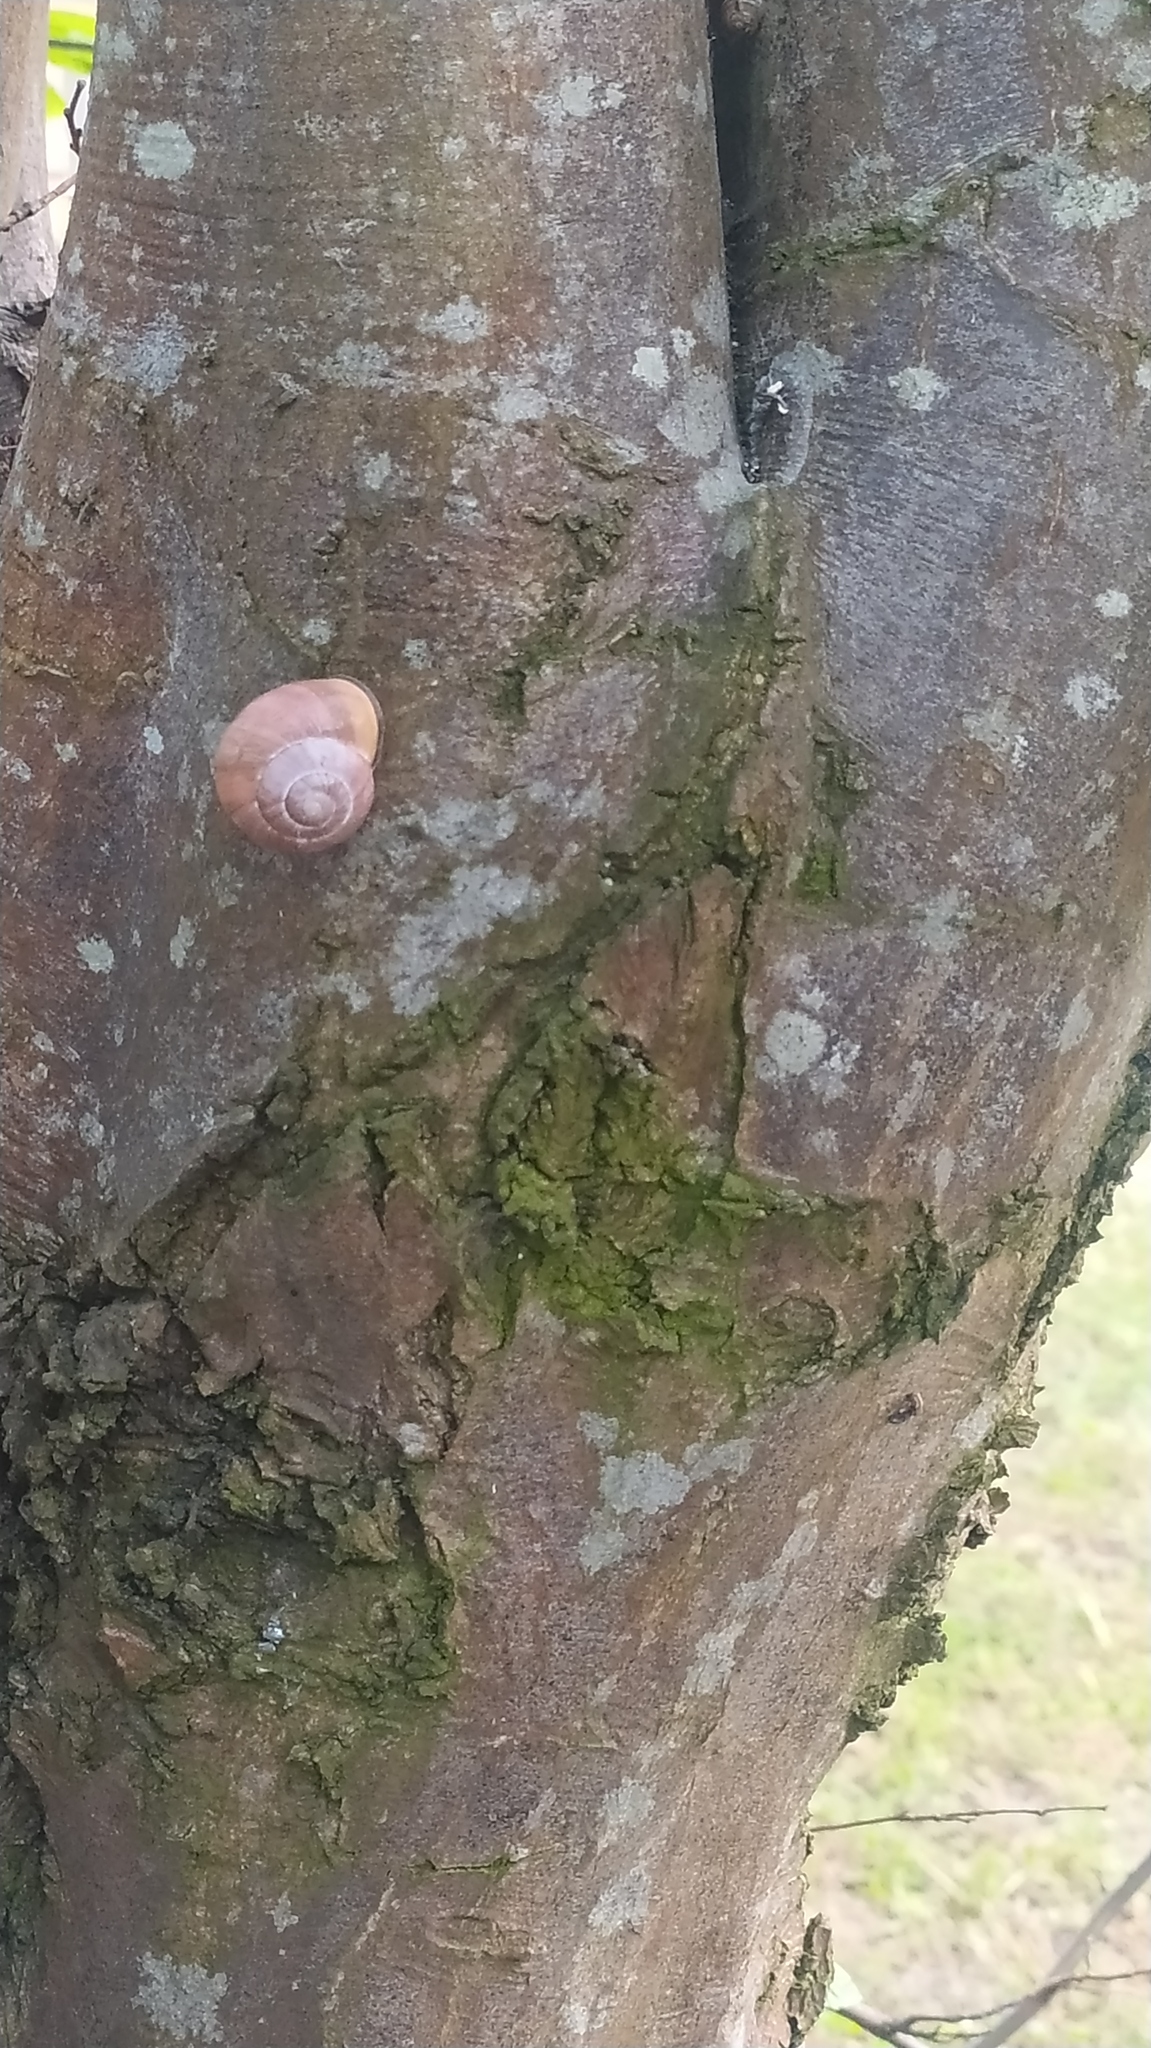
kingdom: Animalia
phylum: Mollusca
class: Gastropoda
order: Stylommatophora
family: Helicidae
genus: Cepaea
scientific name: Cepaea nemoralis
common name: Grovesnail
